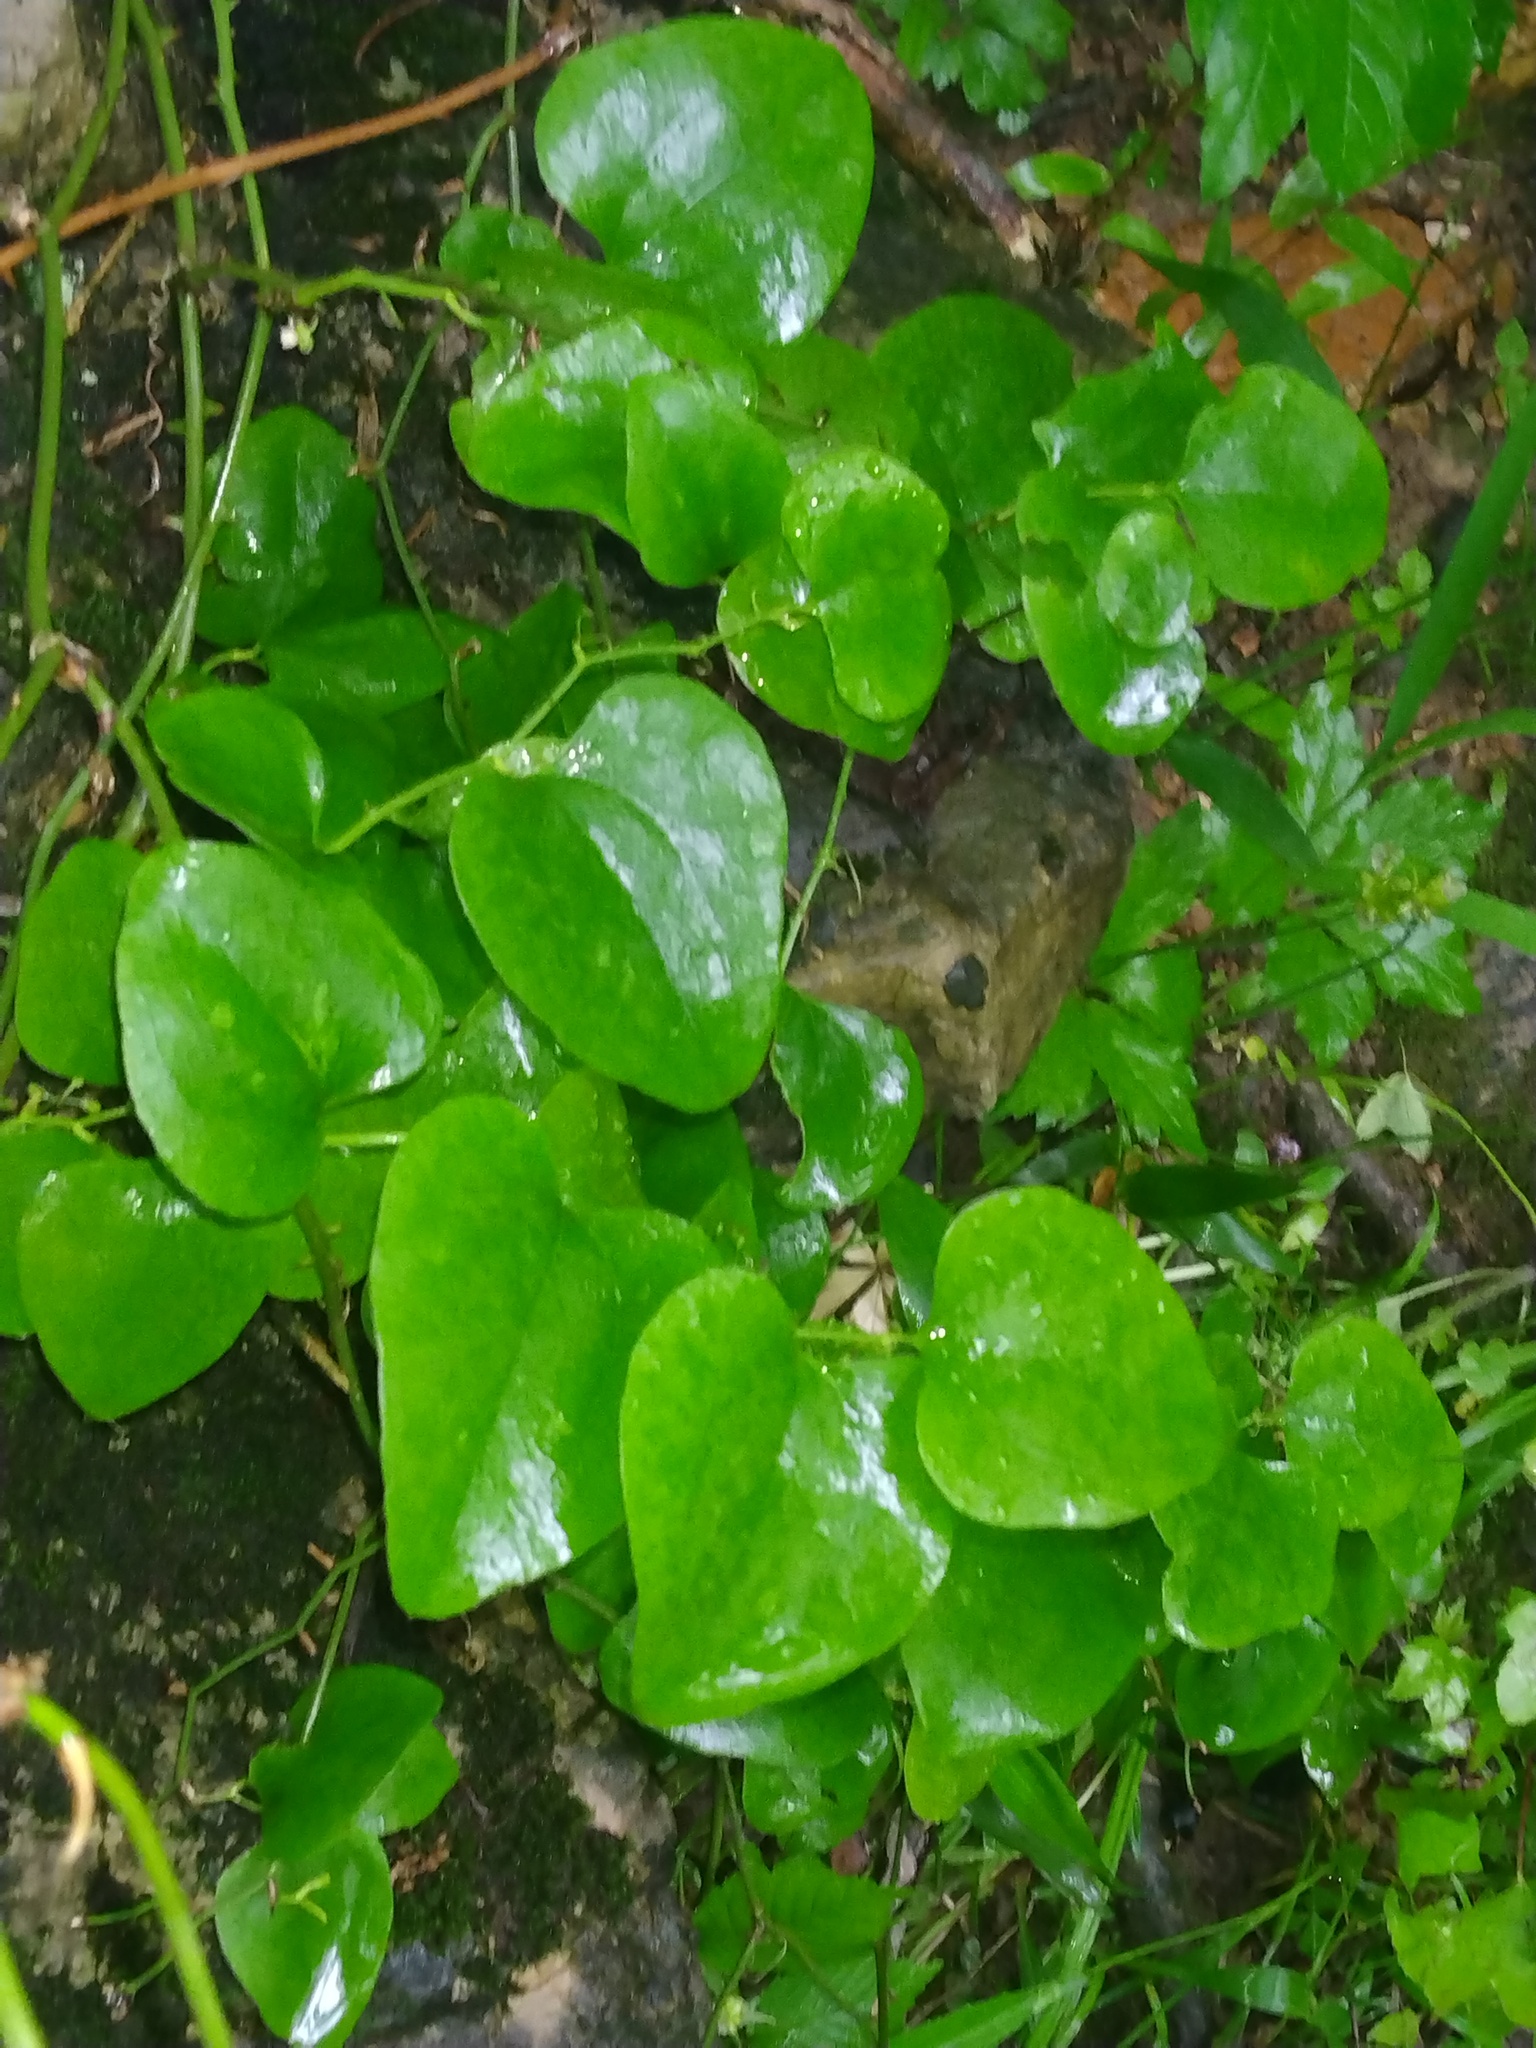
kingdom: Plantae
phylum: Tracheophyta
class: Liliopsida
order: Liliales
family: Smilacaceae
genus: Smilax
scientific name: Smilax rotundifolia
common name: Bullbriar
